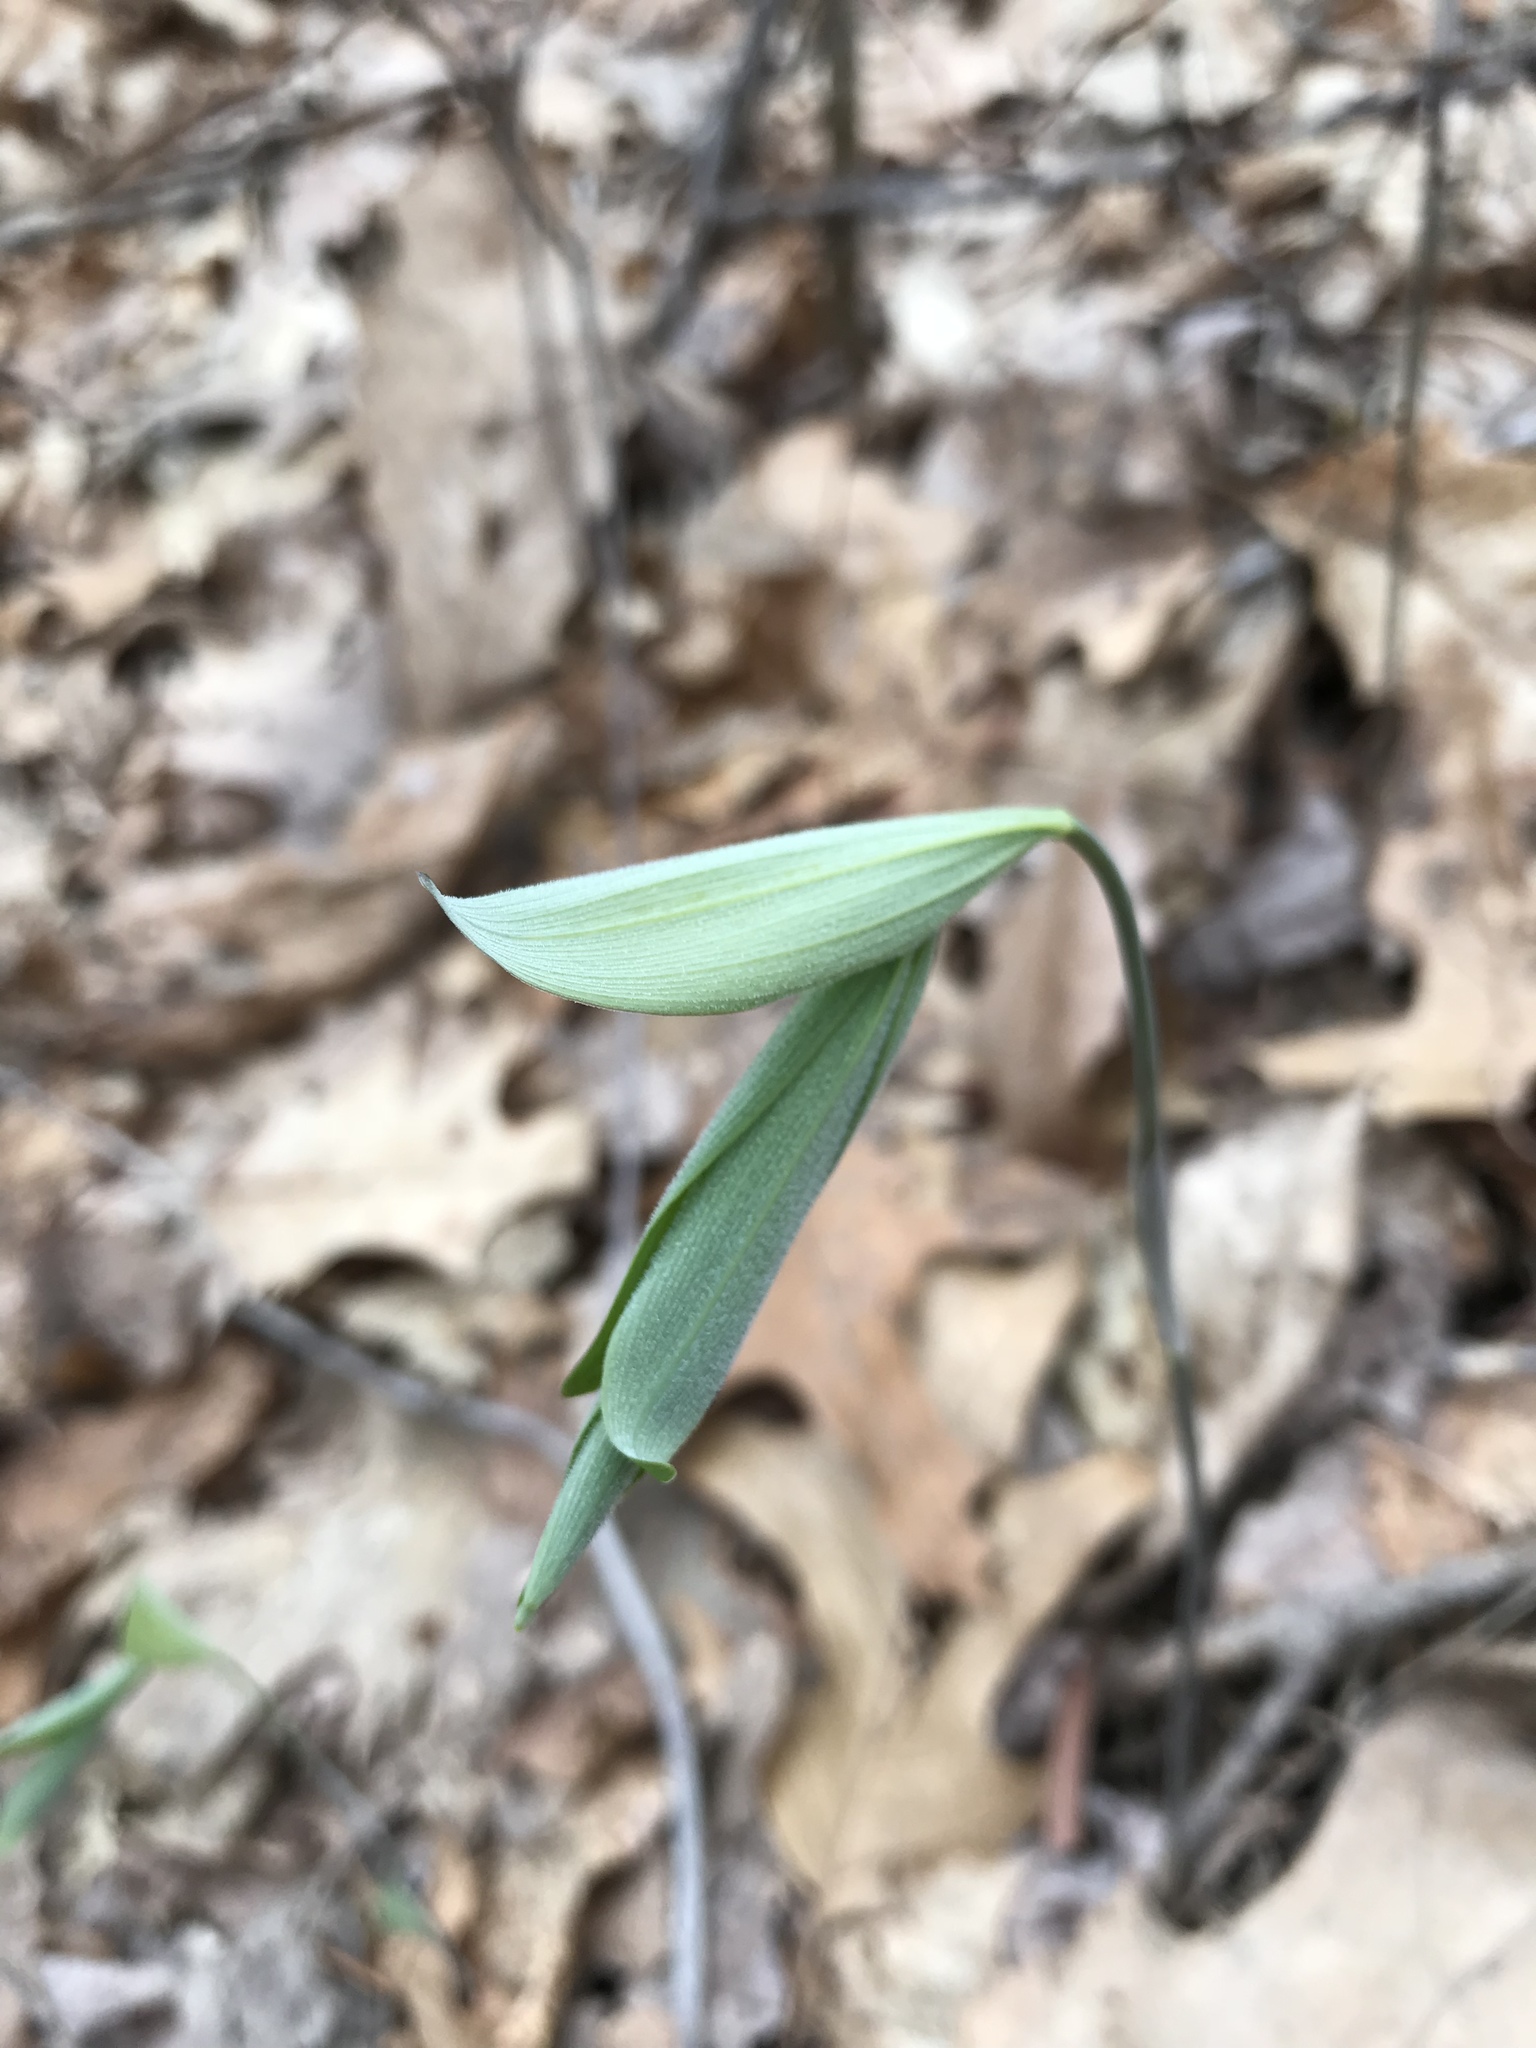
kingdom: Plantae
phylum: Tracheophyta
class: Liliopsida
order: Asparagales
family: Asparagaceae
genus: Polygonatum
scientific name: Polygonatum pubescens
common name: Downy solomon's seal
